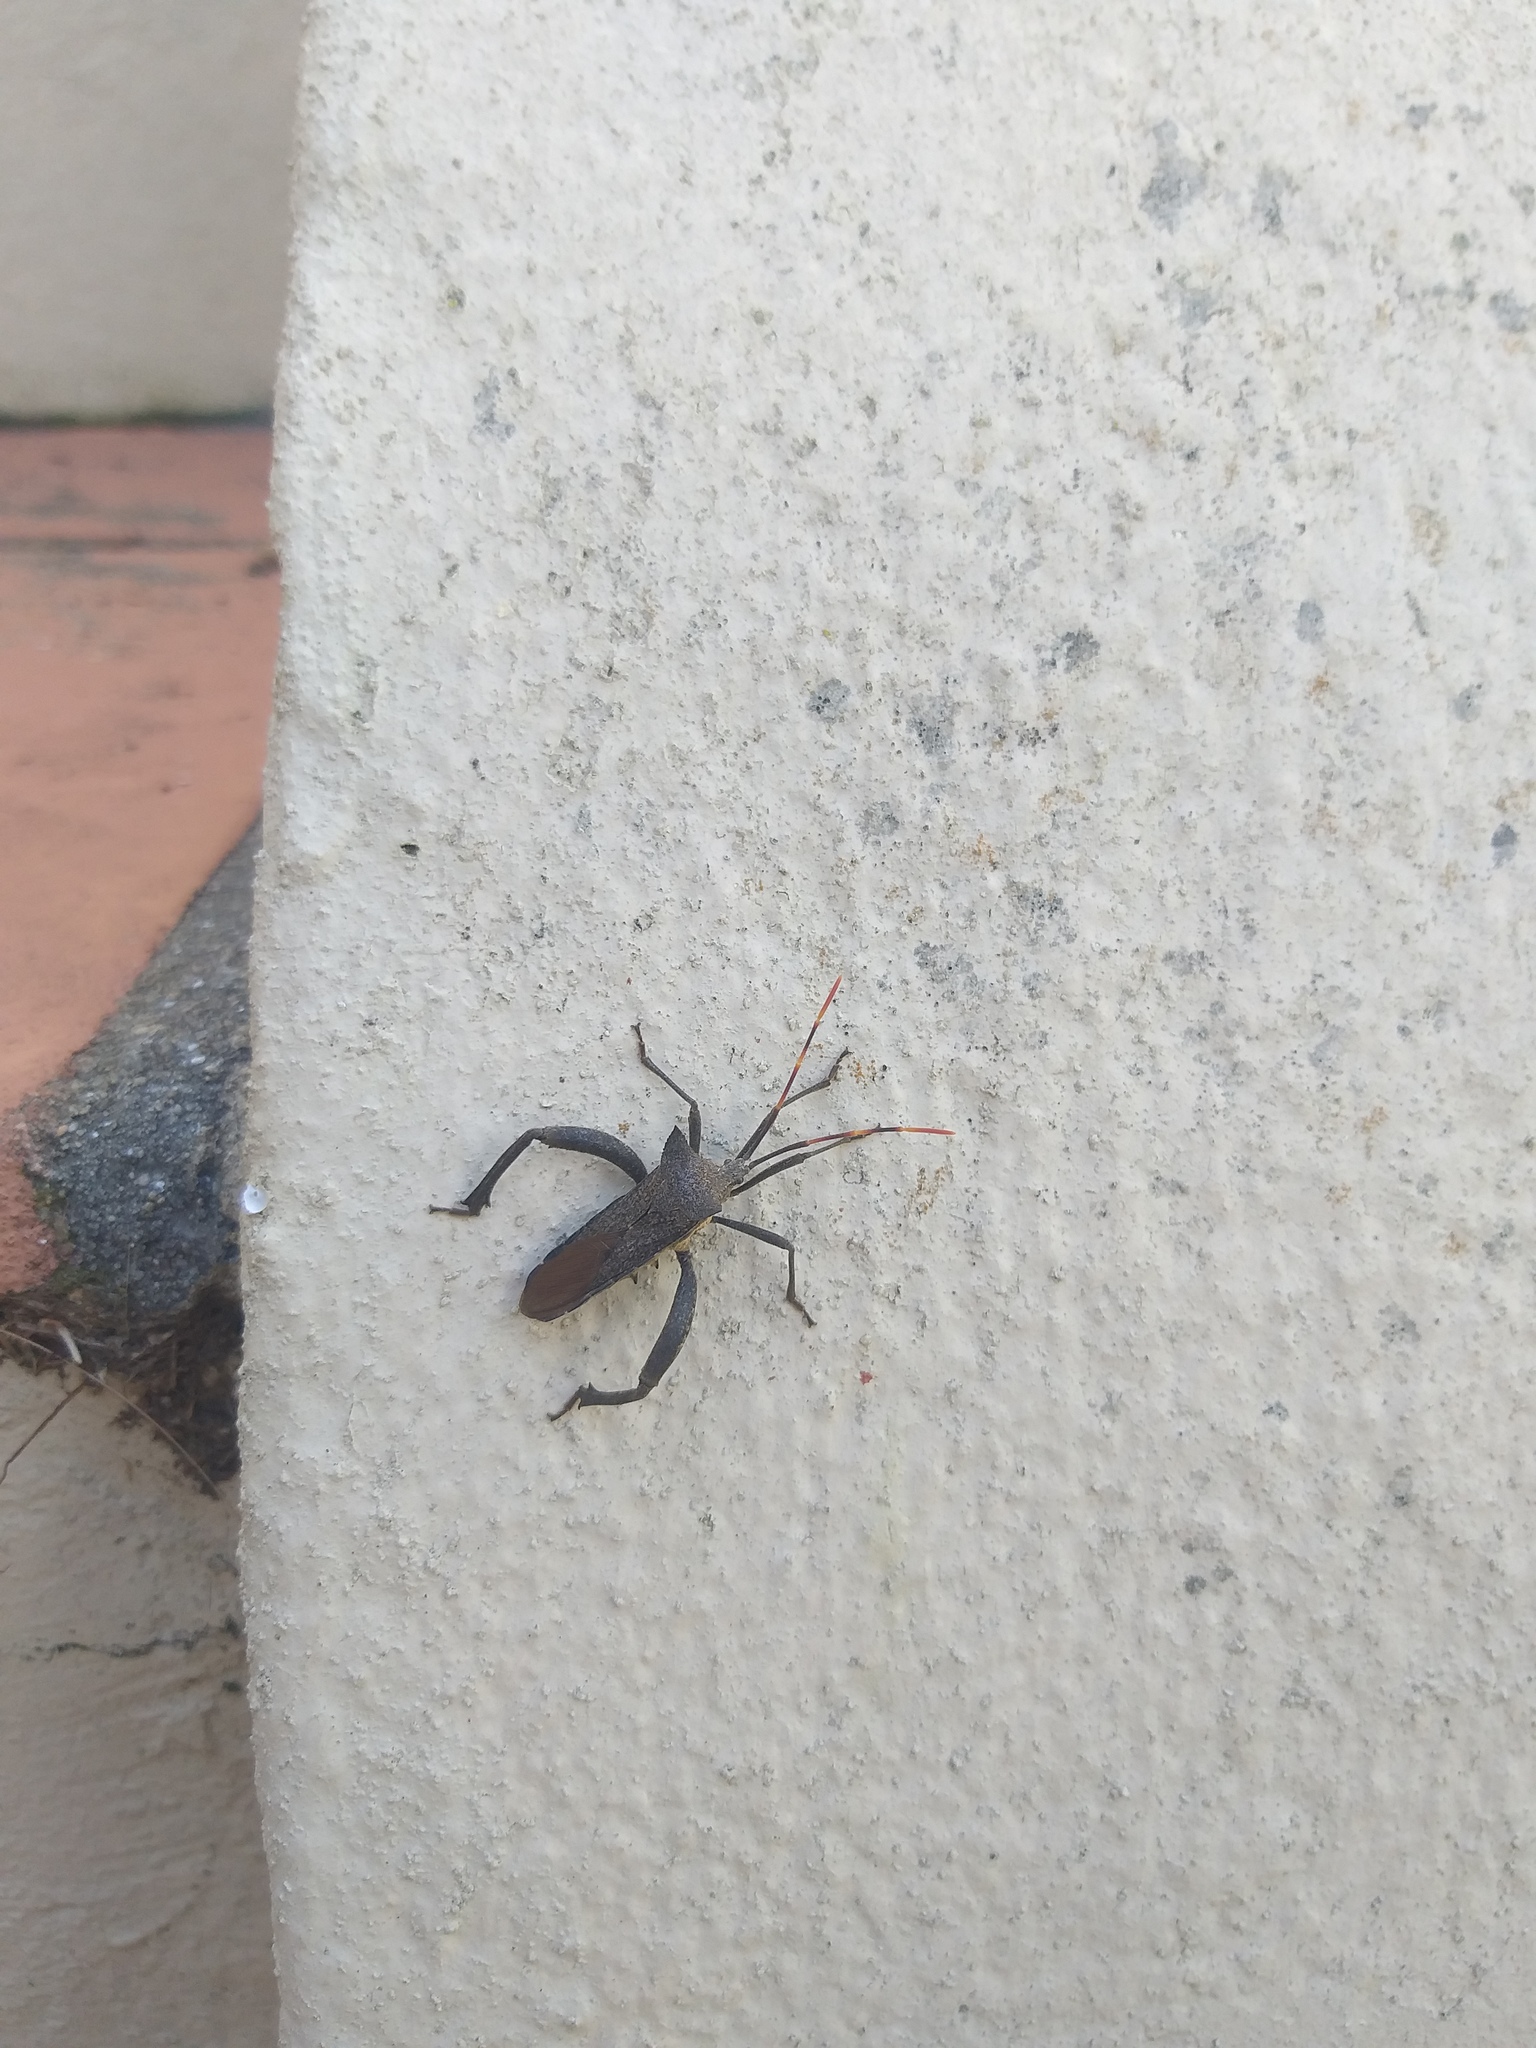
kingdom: Animalia
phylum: Arthropoda
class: Insecta
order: Hemiptera
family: Coreidae
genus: Elasmopoda
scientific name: Elasmopoda valga
